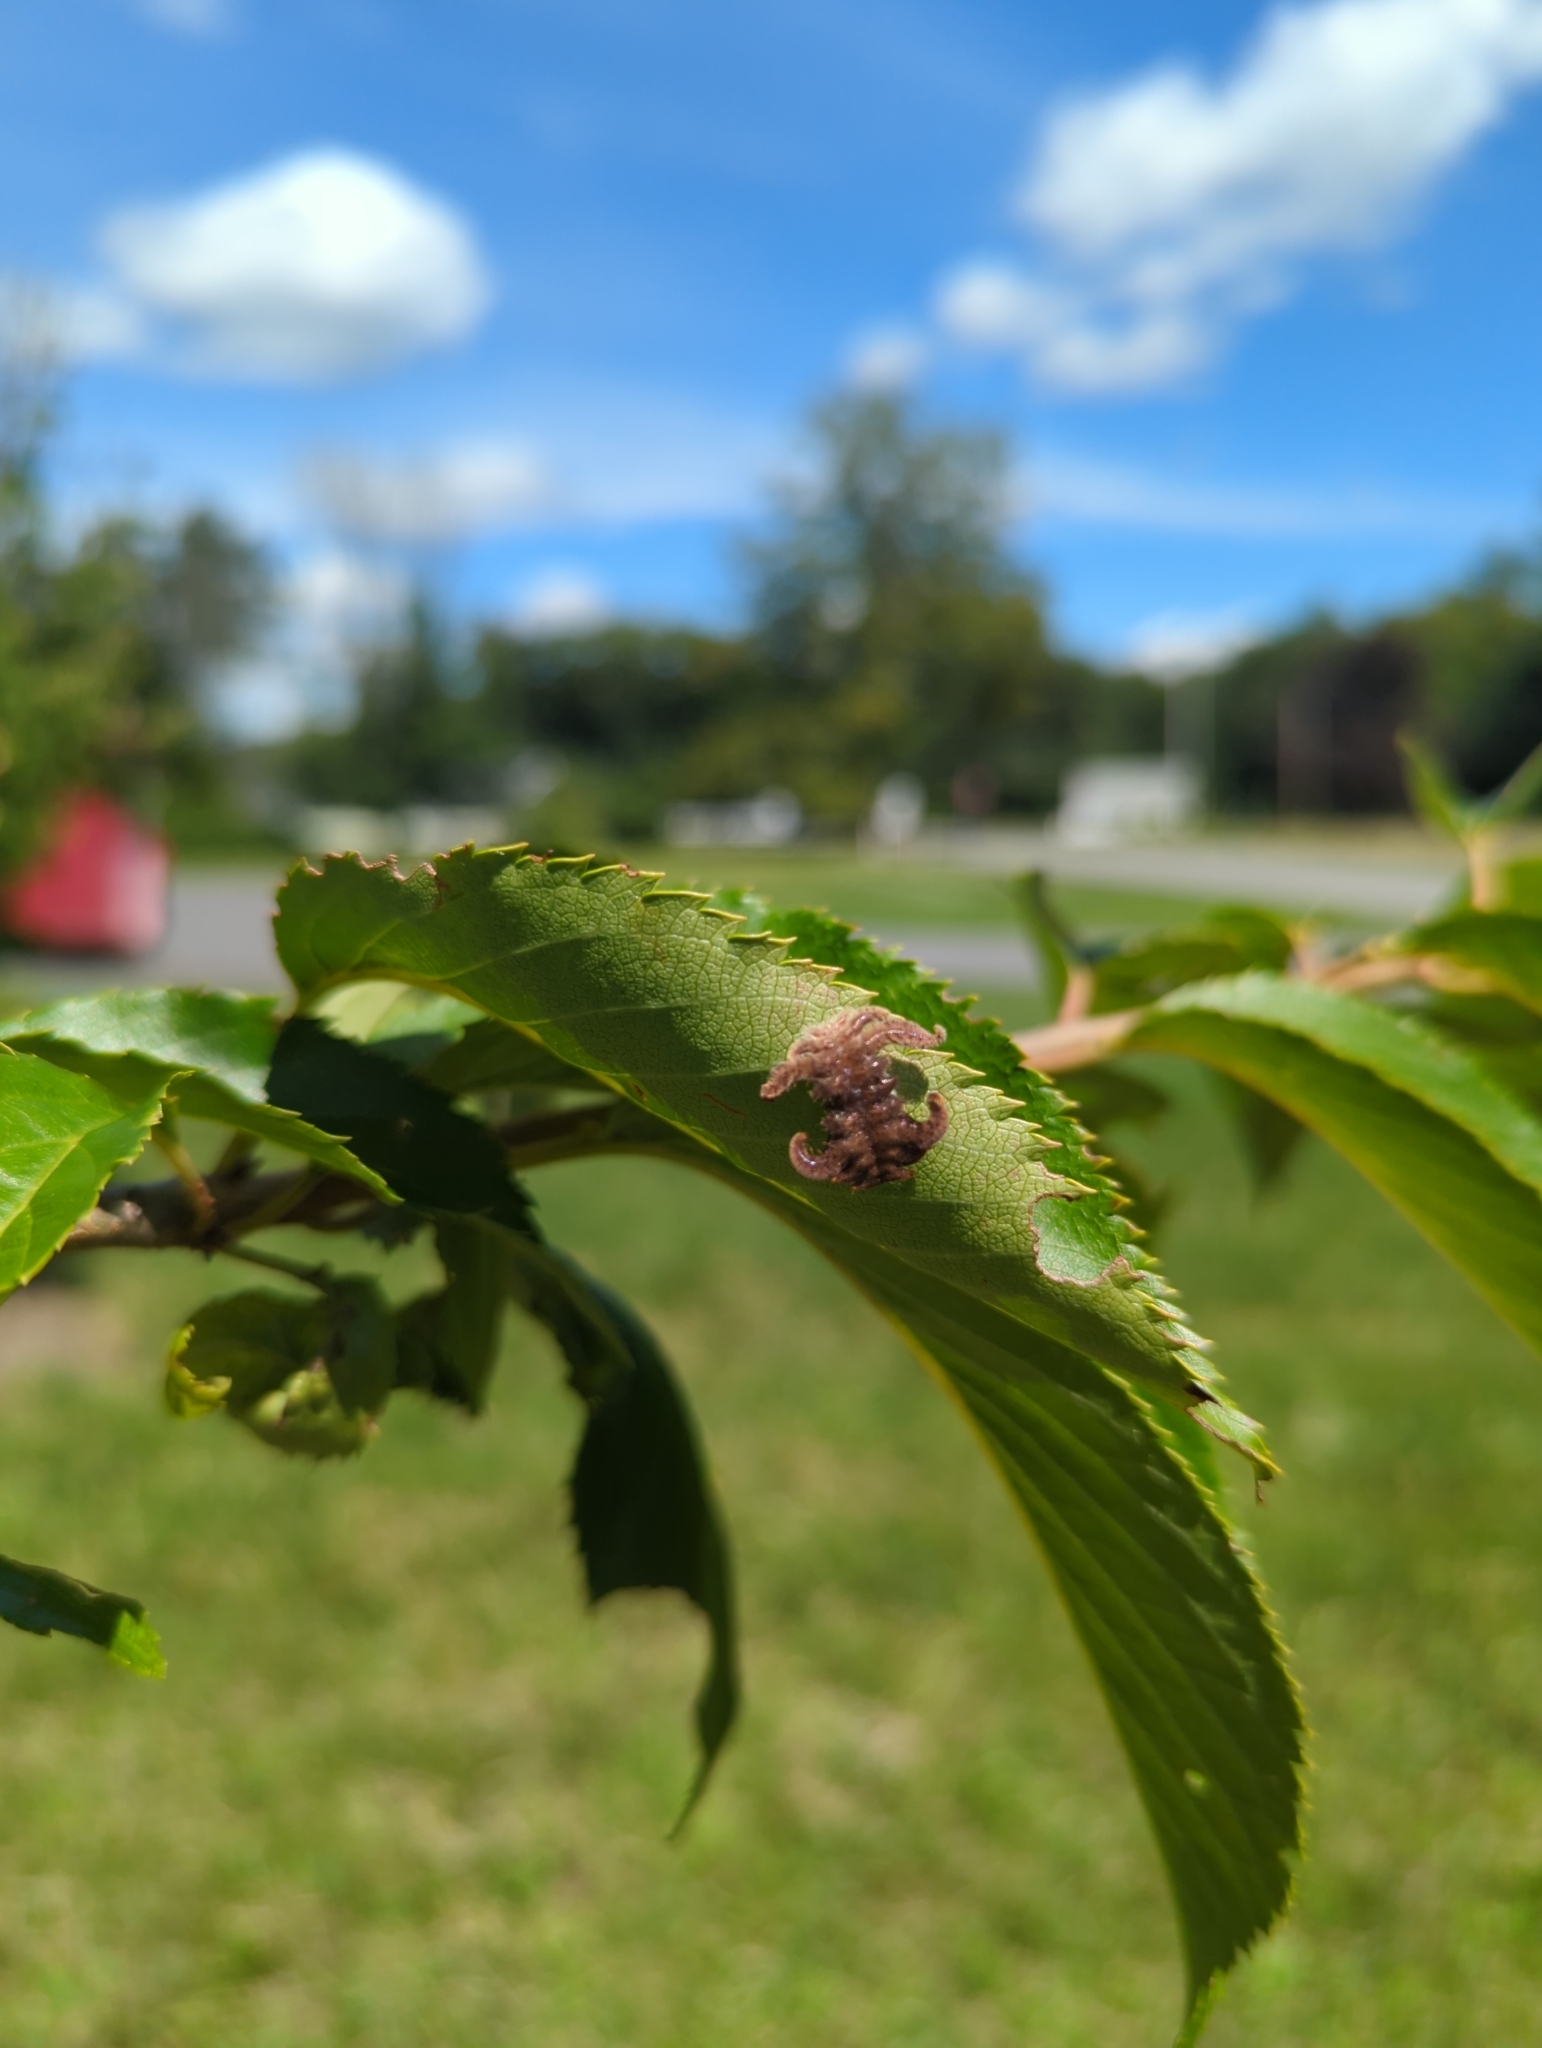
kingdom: Animalia
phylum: Arthropoda
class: Insecta
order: Lepidoptera
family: Limacodidae
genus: Phobetron
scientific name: Phobetron pithecium
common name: Hag moth
